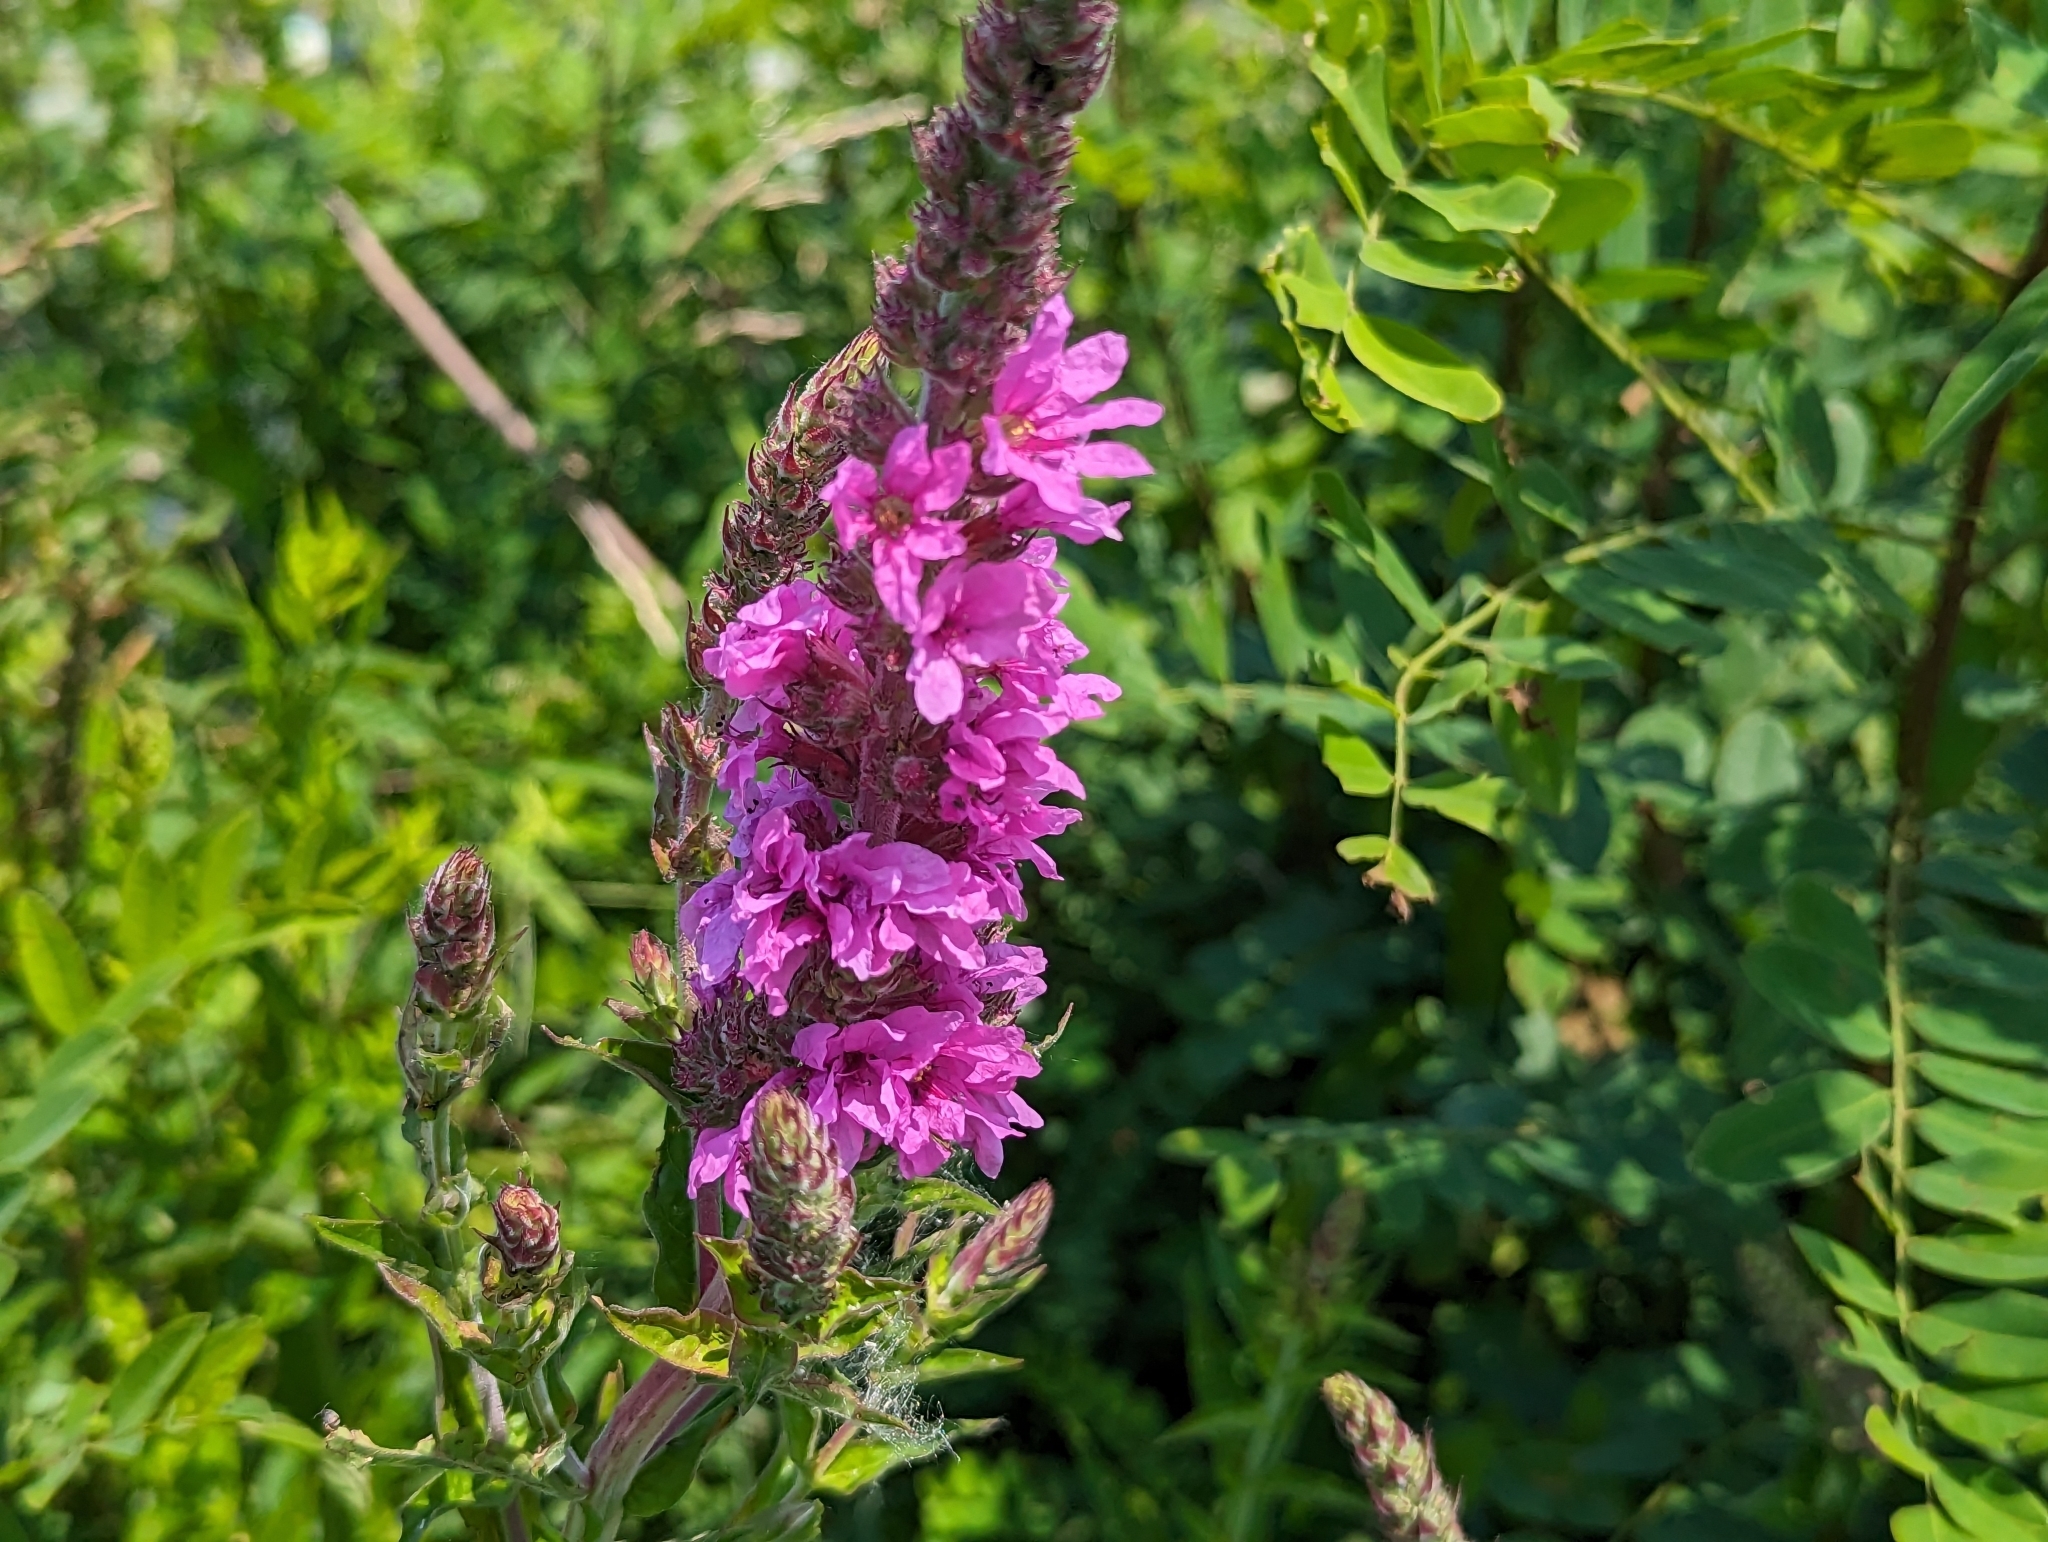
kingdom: Plantae
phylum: Tracheophyta
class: Magnoliopsida
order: Myrtales
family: Lythraceae
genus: Lythrum
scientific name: Lythrum salicaria
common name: Purple loosestrife
